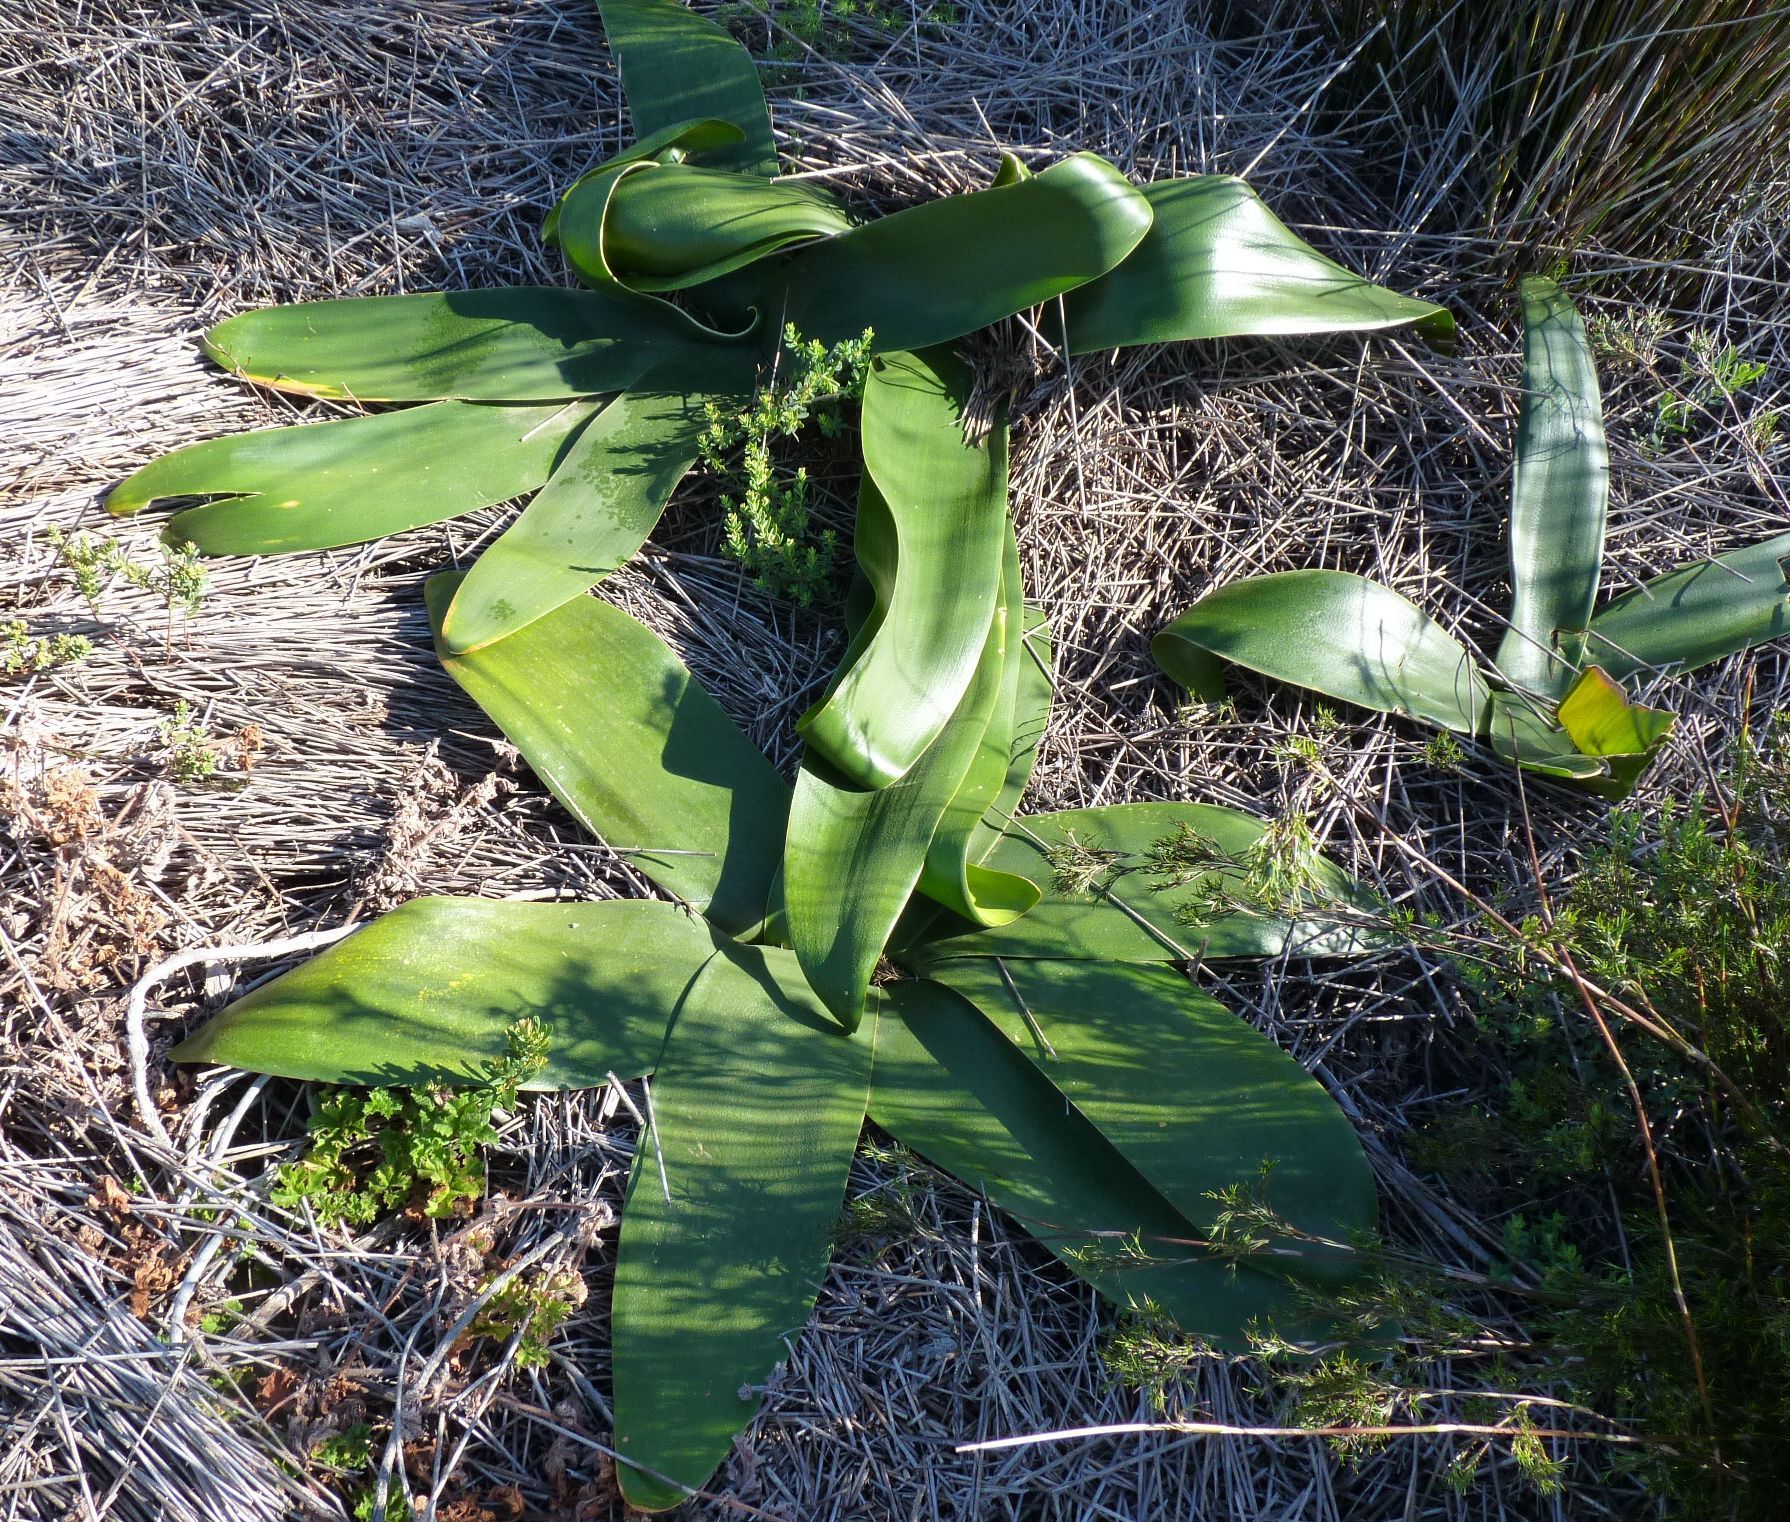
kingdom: Plantae
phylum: Tracheophyta
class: Liliopsida
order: Asparagales
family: Amaryllidaceae
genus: Brunsvigia
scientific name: Brunsvigia orientalis
